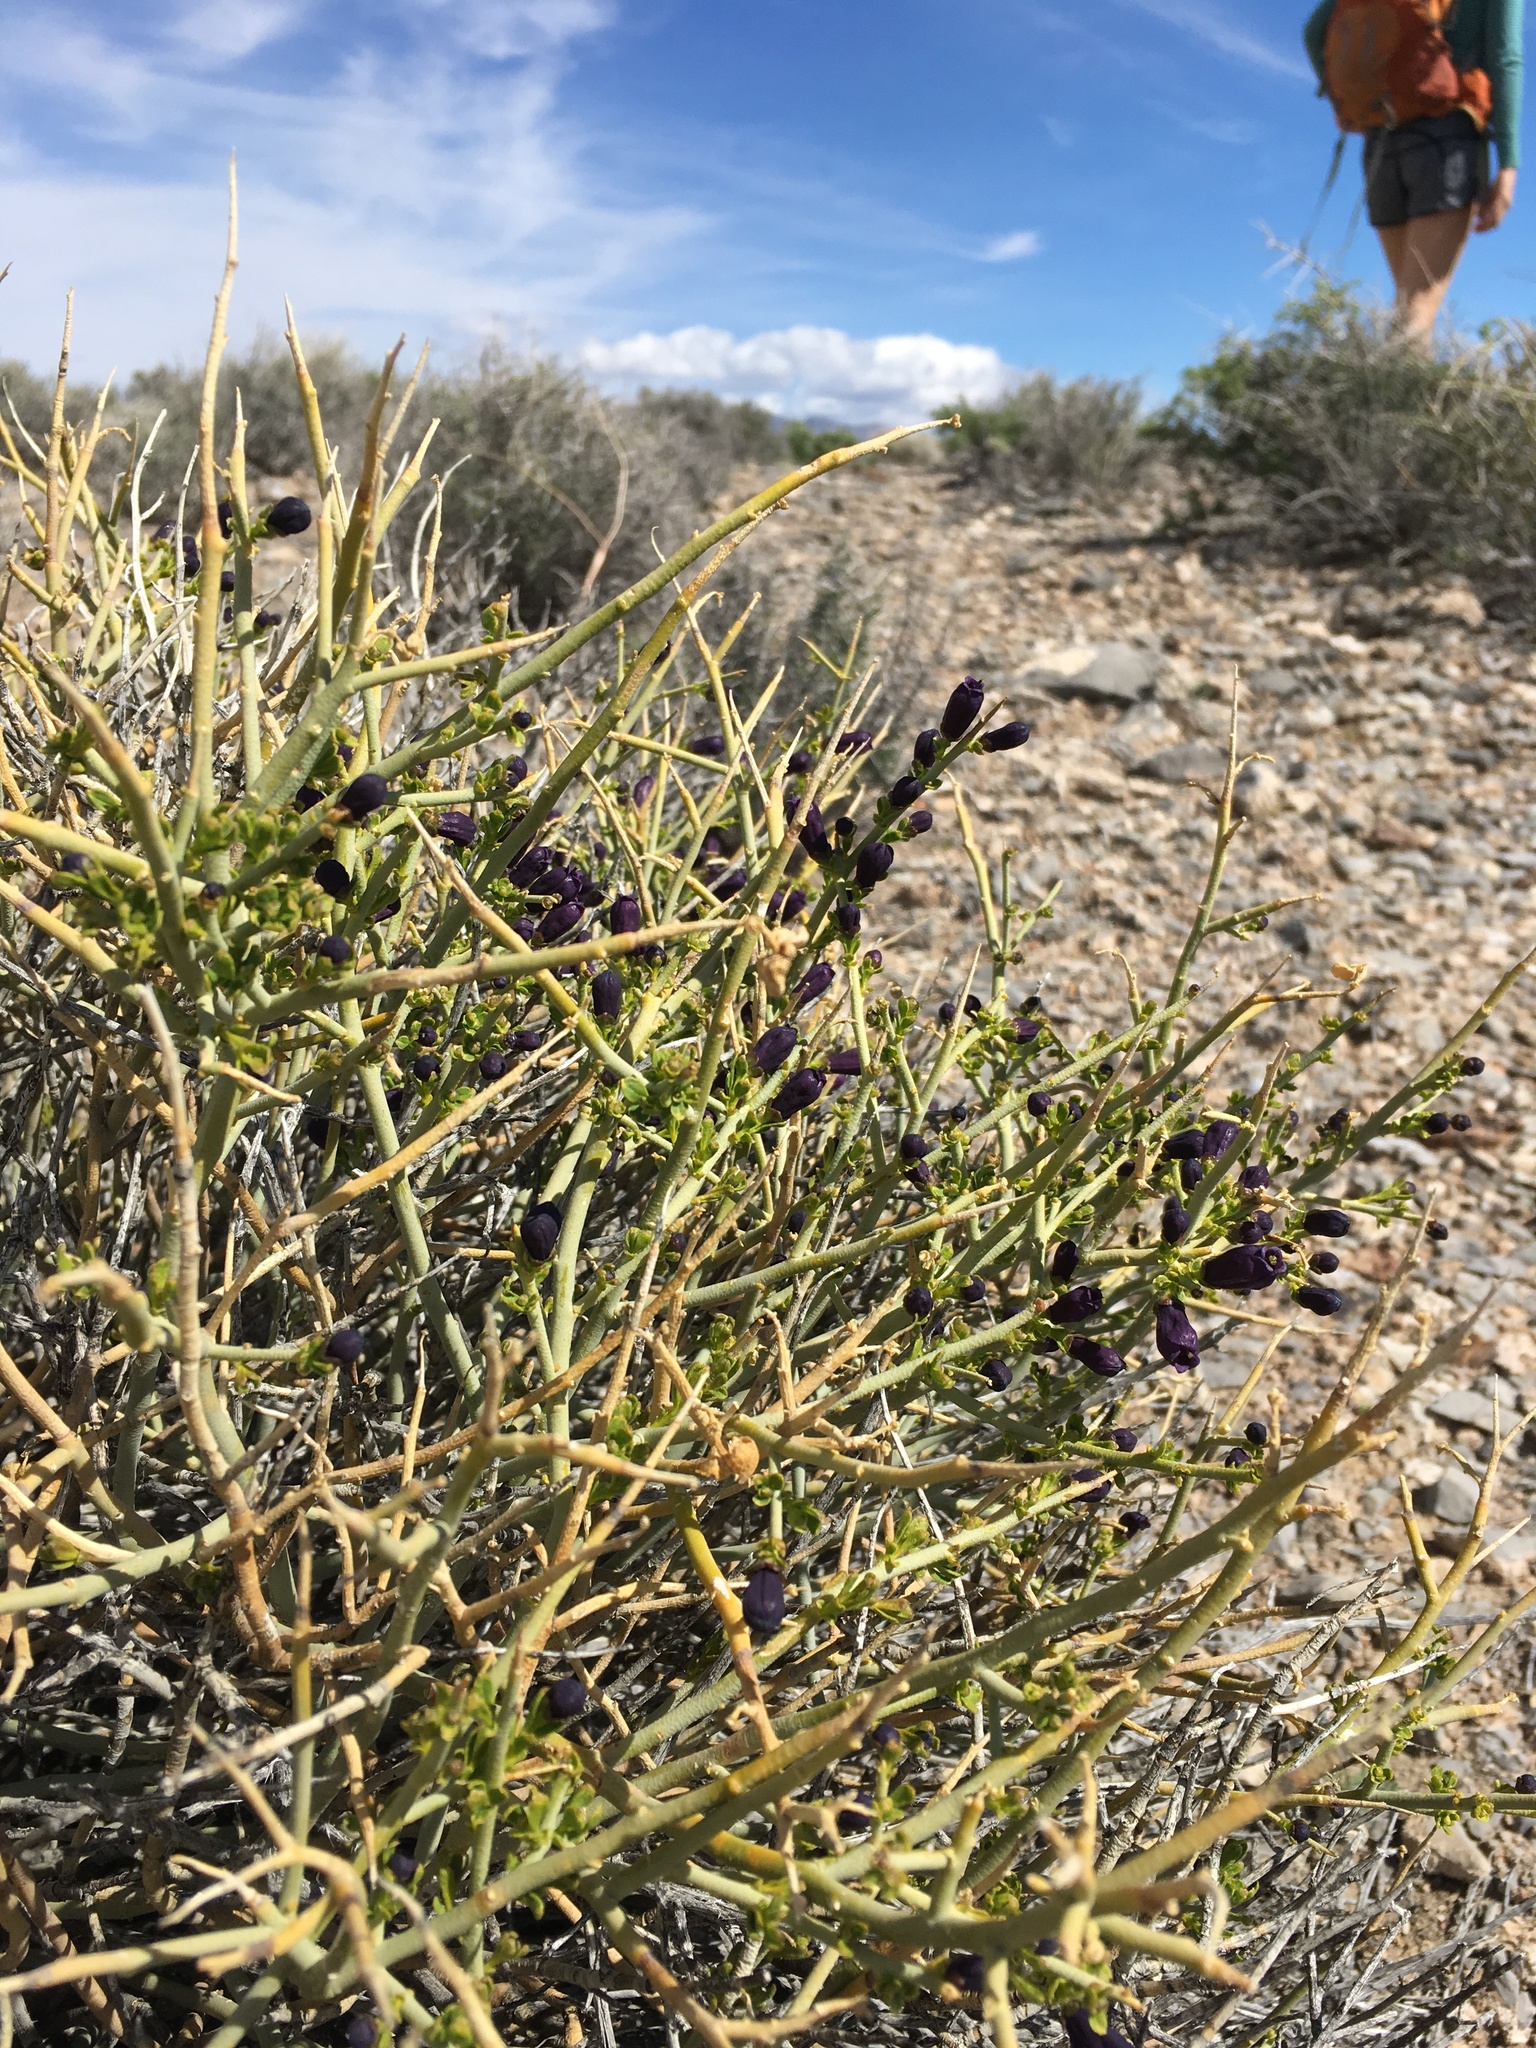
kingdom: Plantae
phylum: Tracheophyta
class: Magnoliopsida
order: Sapindales
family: Rutaceae
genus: Thamnosma
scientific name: Thamnosma montana
